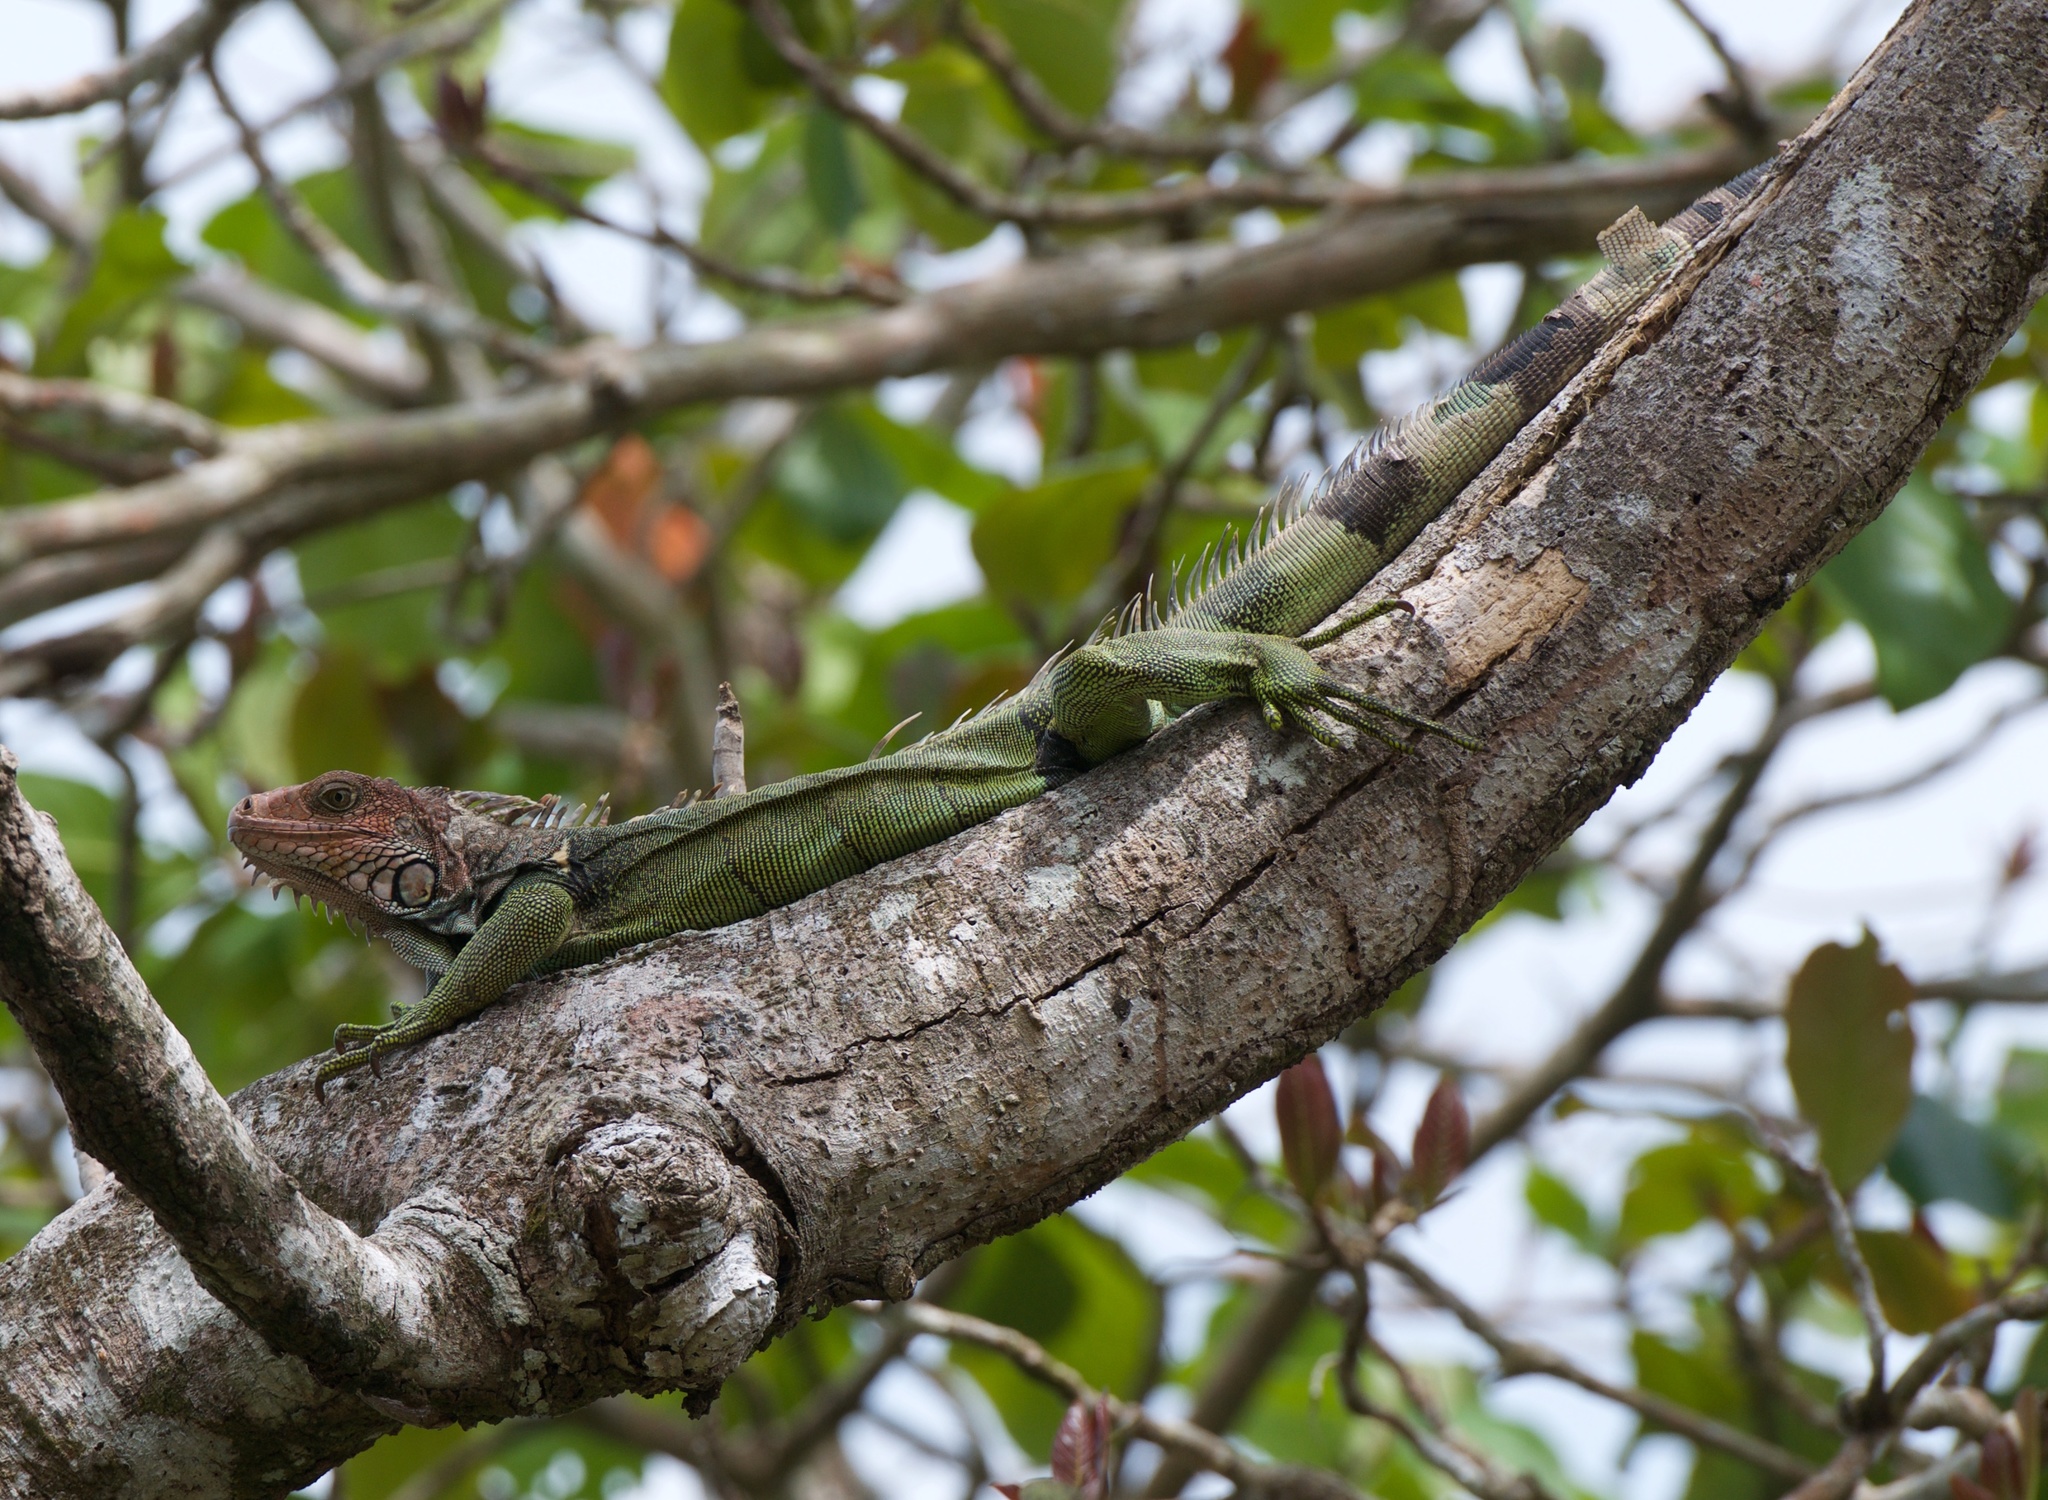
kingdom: Animalia
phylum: Chordata
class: Squamata
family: Iguanidae
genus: Iguana
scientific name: Iguana iguana
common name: Green iguana
